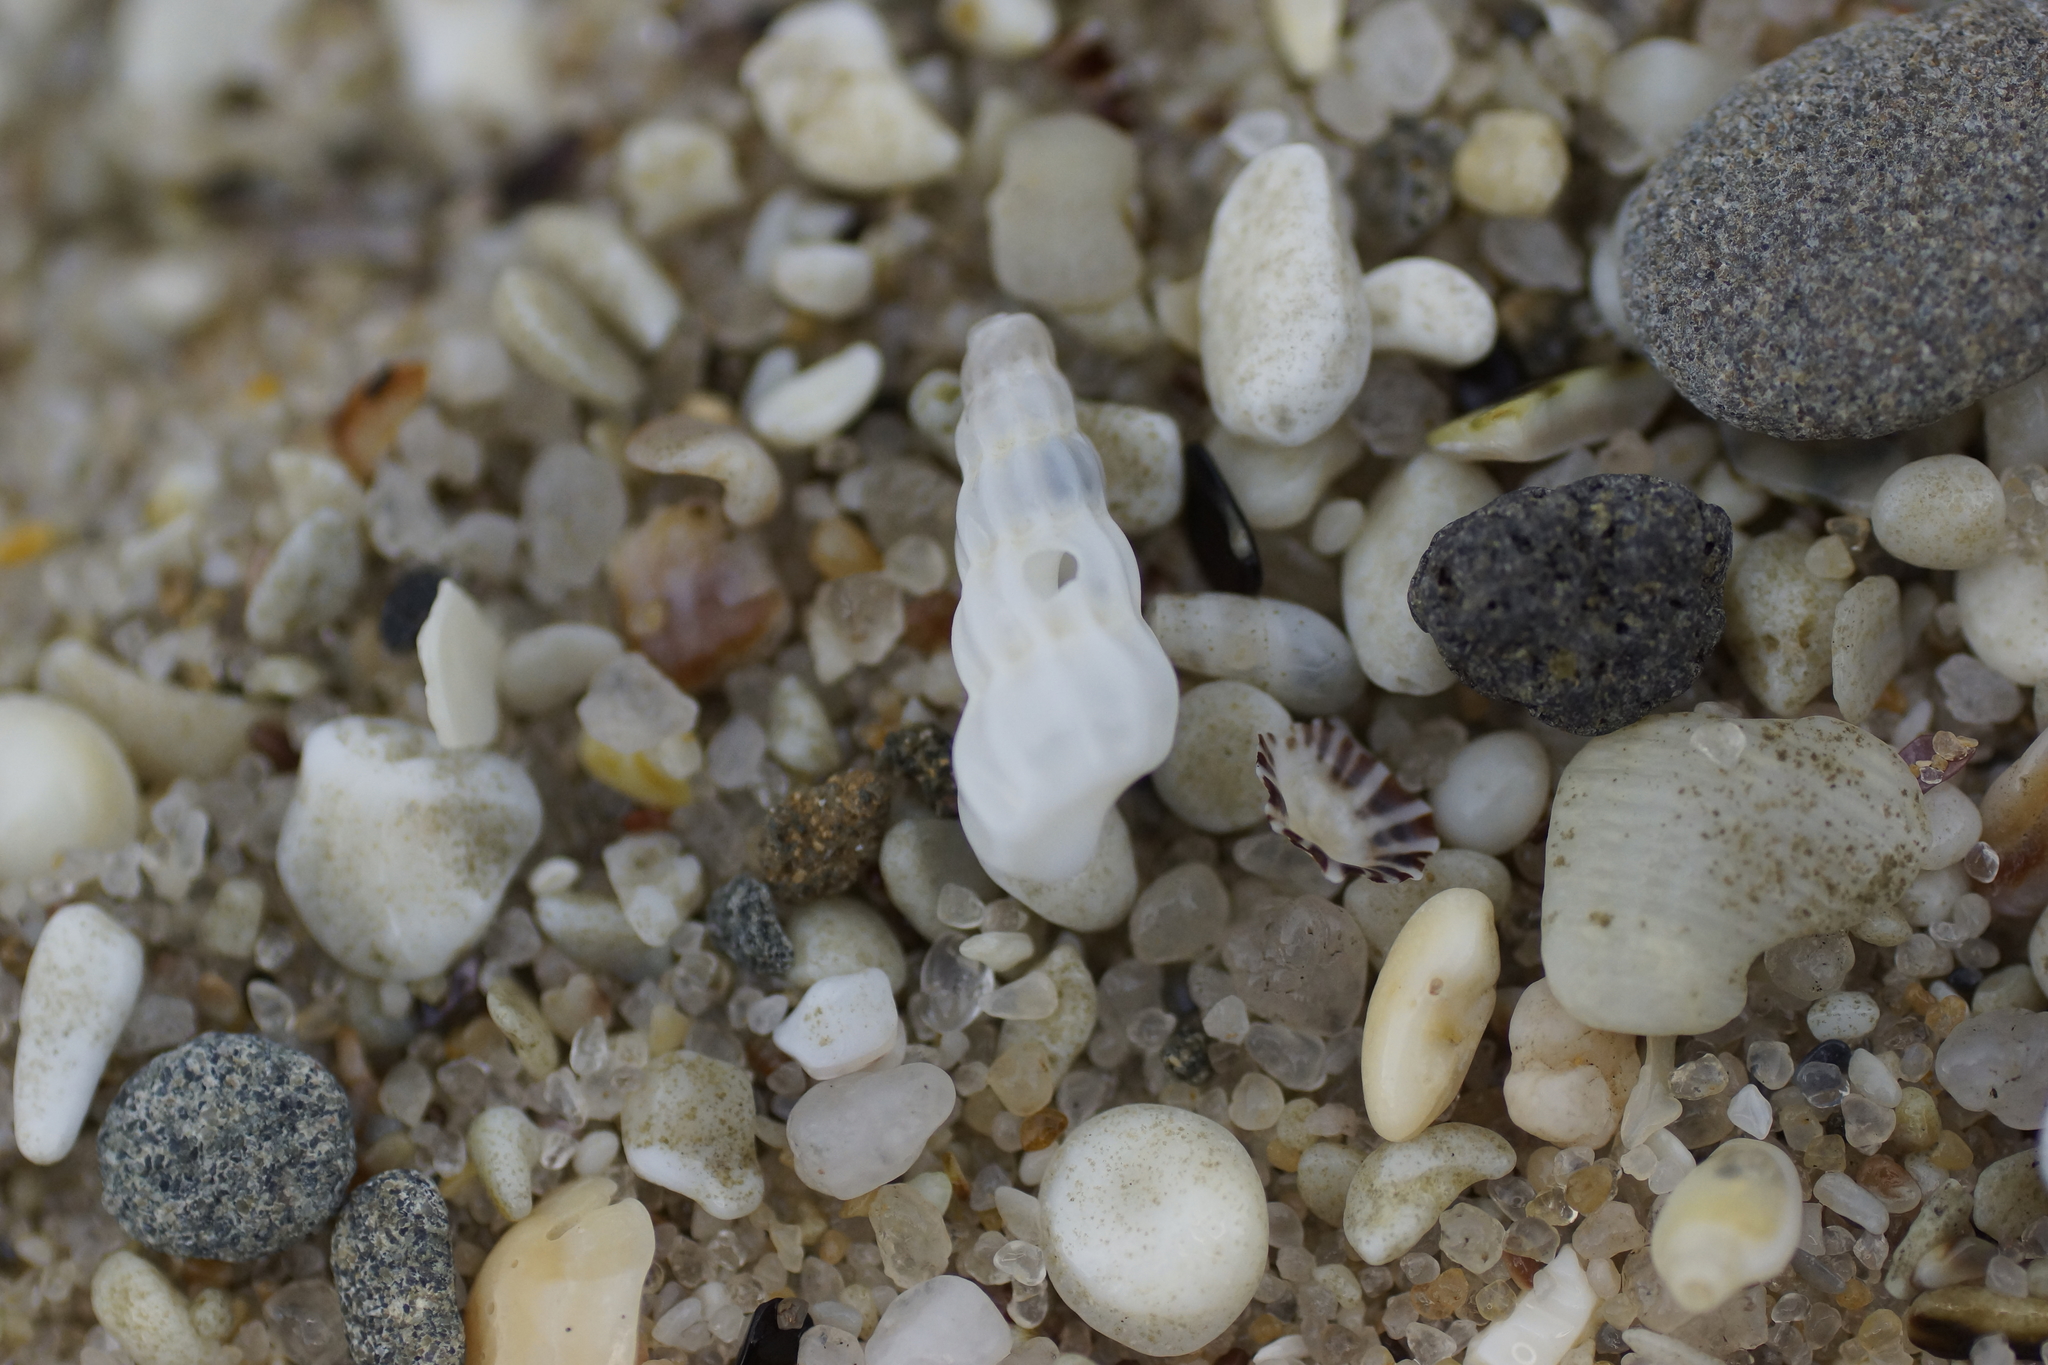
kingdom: Animalia
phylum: Mollusca
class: Gastropoda
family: Epitoniidae
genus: Opalia
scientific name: Opalia australis
